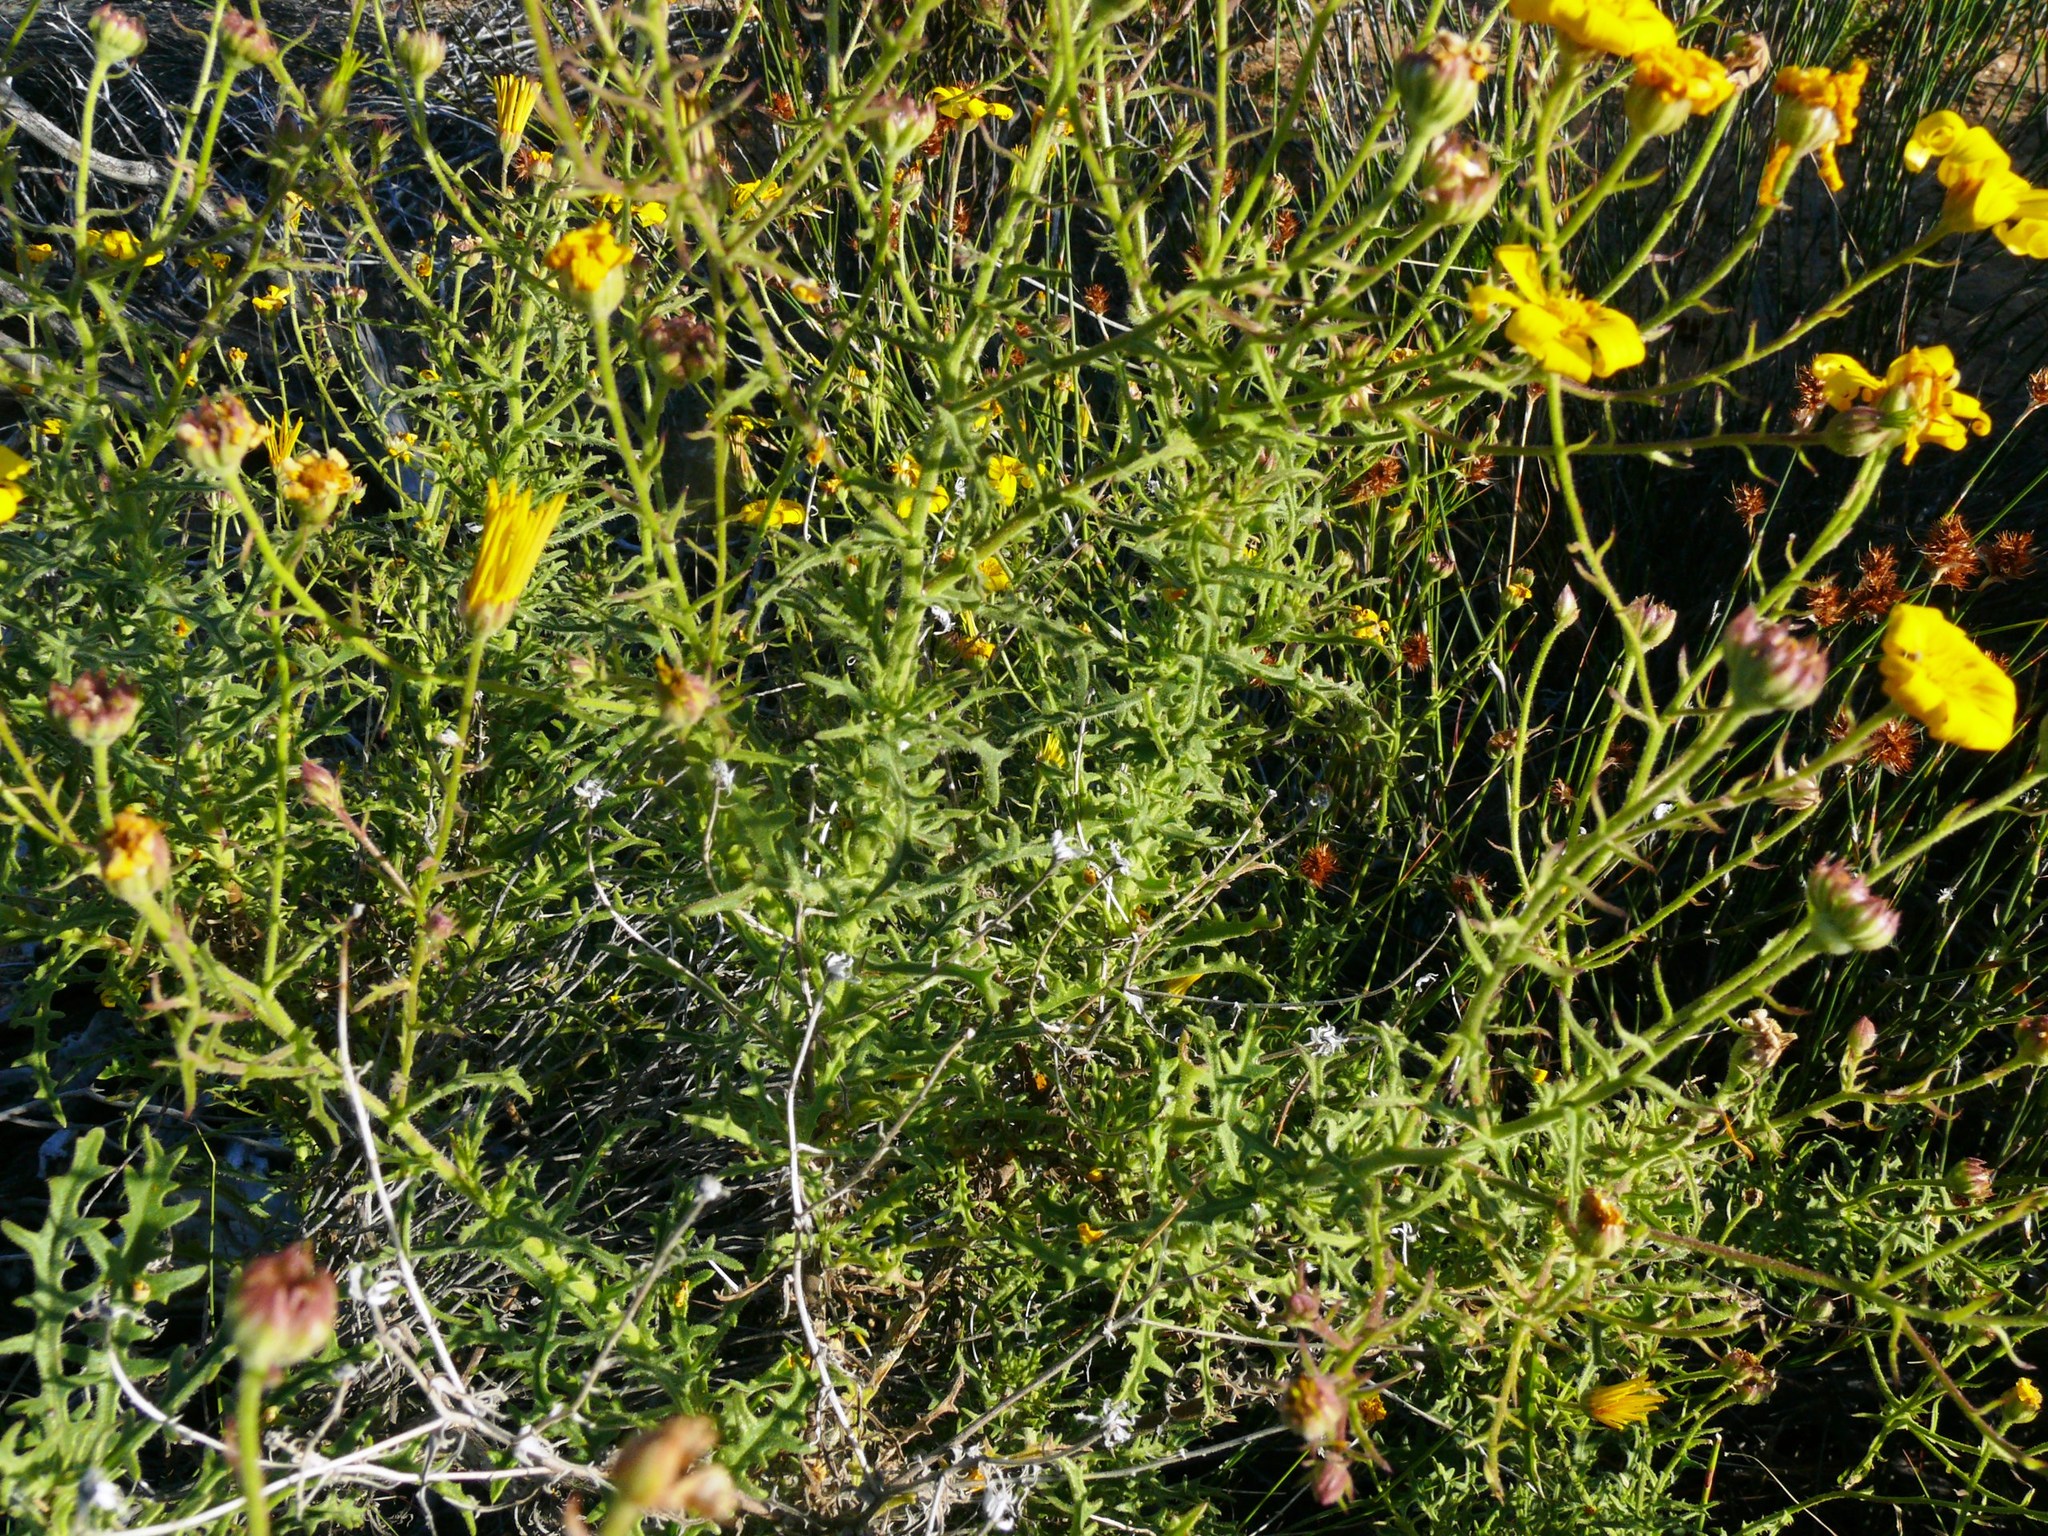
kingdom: Plantae
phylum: Tracheophyta
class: Magnoliopsida
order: Asterales
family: Asteraceae
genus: Osteospermum
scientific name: Osteospermum rigidum
